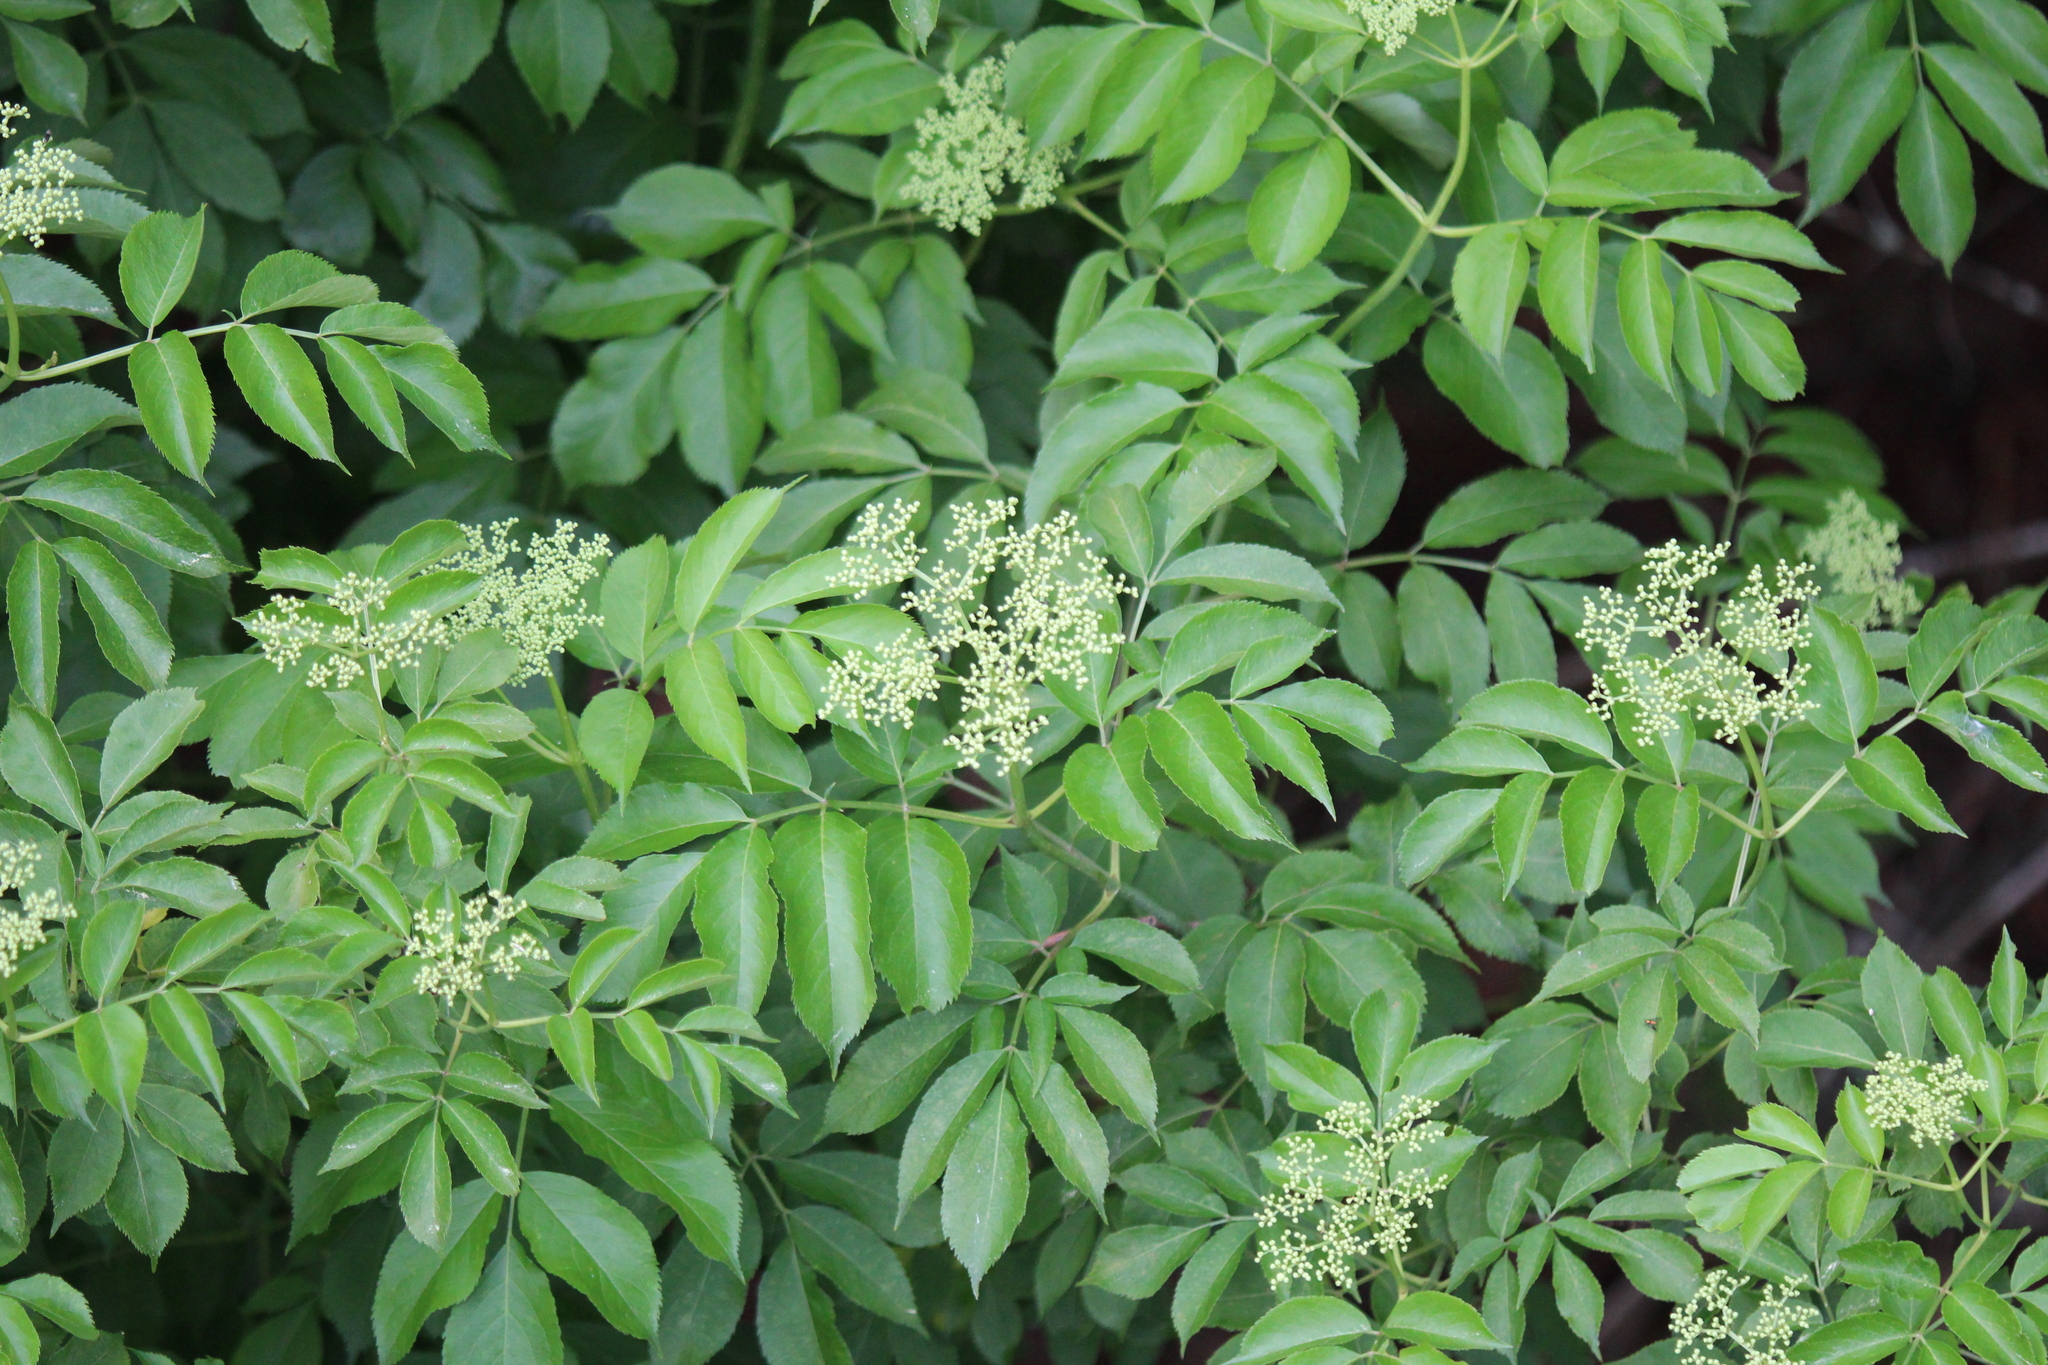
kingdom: Plantae
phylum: Tracheophyta
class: Magnoliopsida
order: Dipsacales
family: Viburnaceae
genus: Sambucus
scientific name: Sambucus canadensis
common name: American elder
